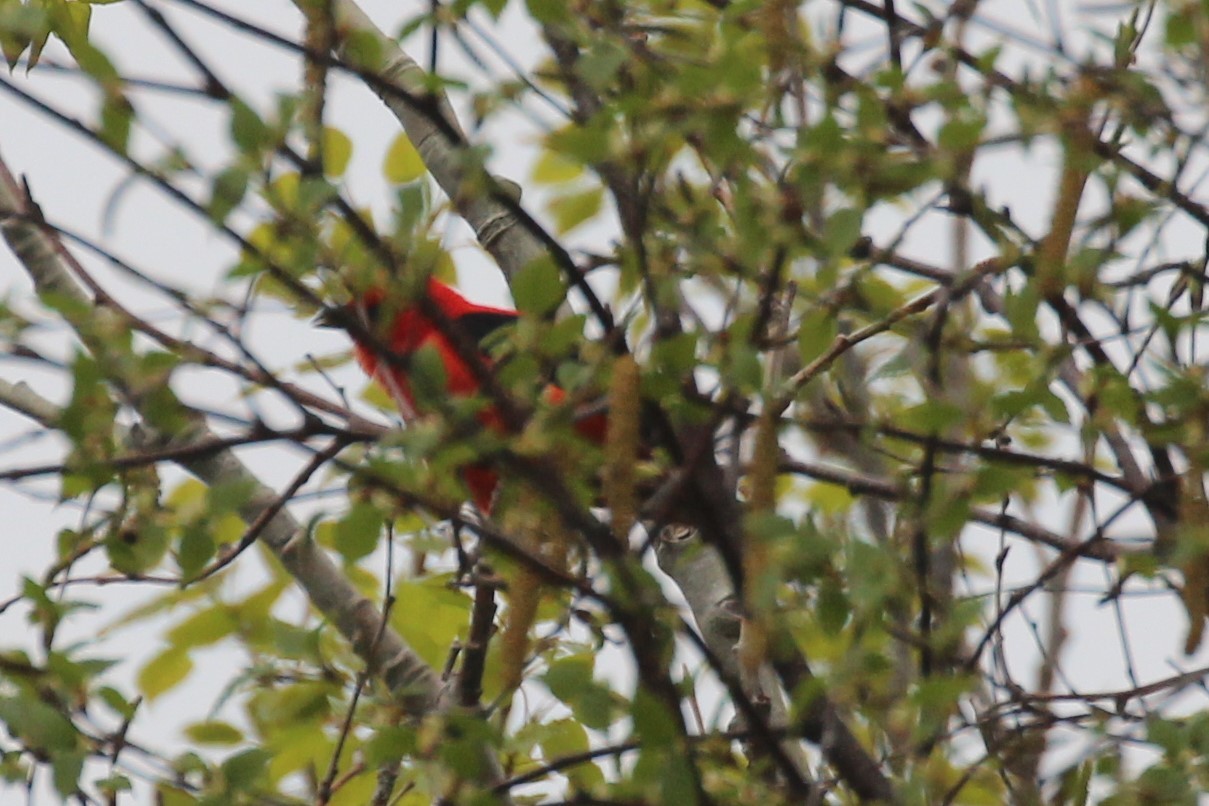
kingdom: Animalia
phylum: Chordata
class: Aves
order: Passeriformes
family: Cardinalidae
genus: Piranga
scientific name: Piranga olivacea
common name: Scarlet tanager
